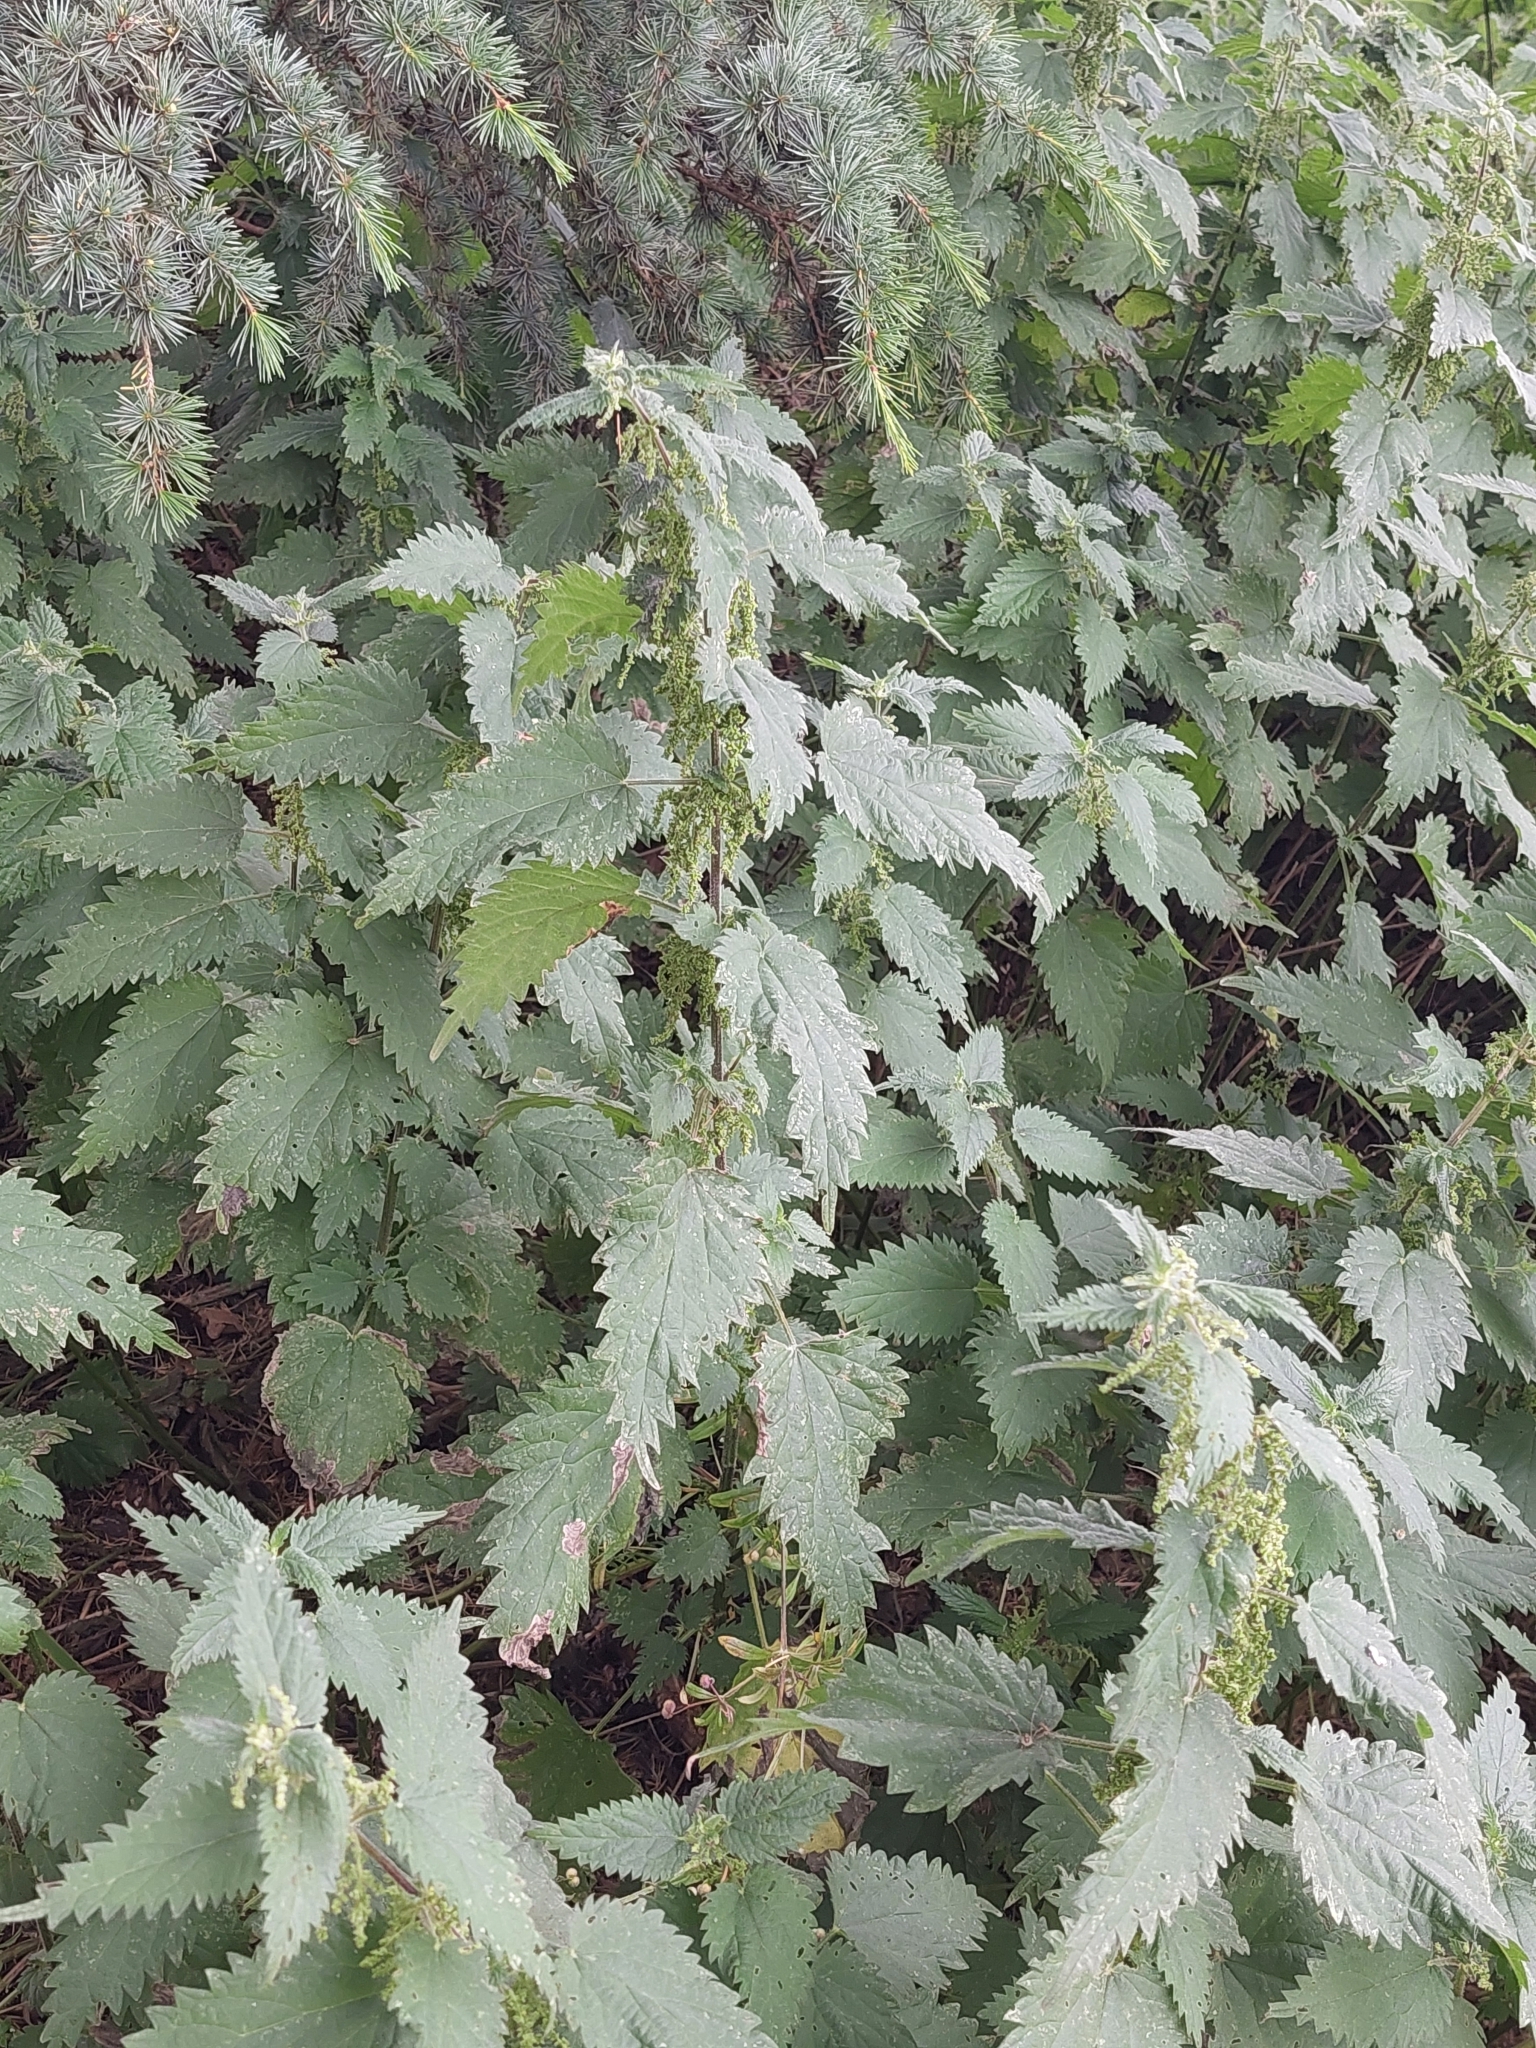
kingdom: Plantae
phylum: Tracheophyta
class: Magnoliopsida
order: Rosales
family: Urticaceae
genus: Urtica
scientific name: Urtica dioica
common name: Common nettle
